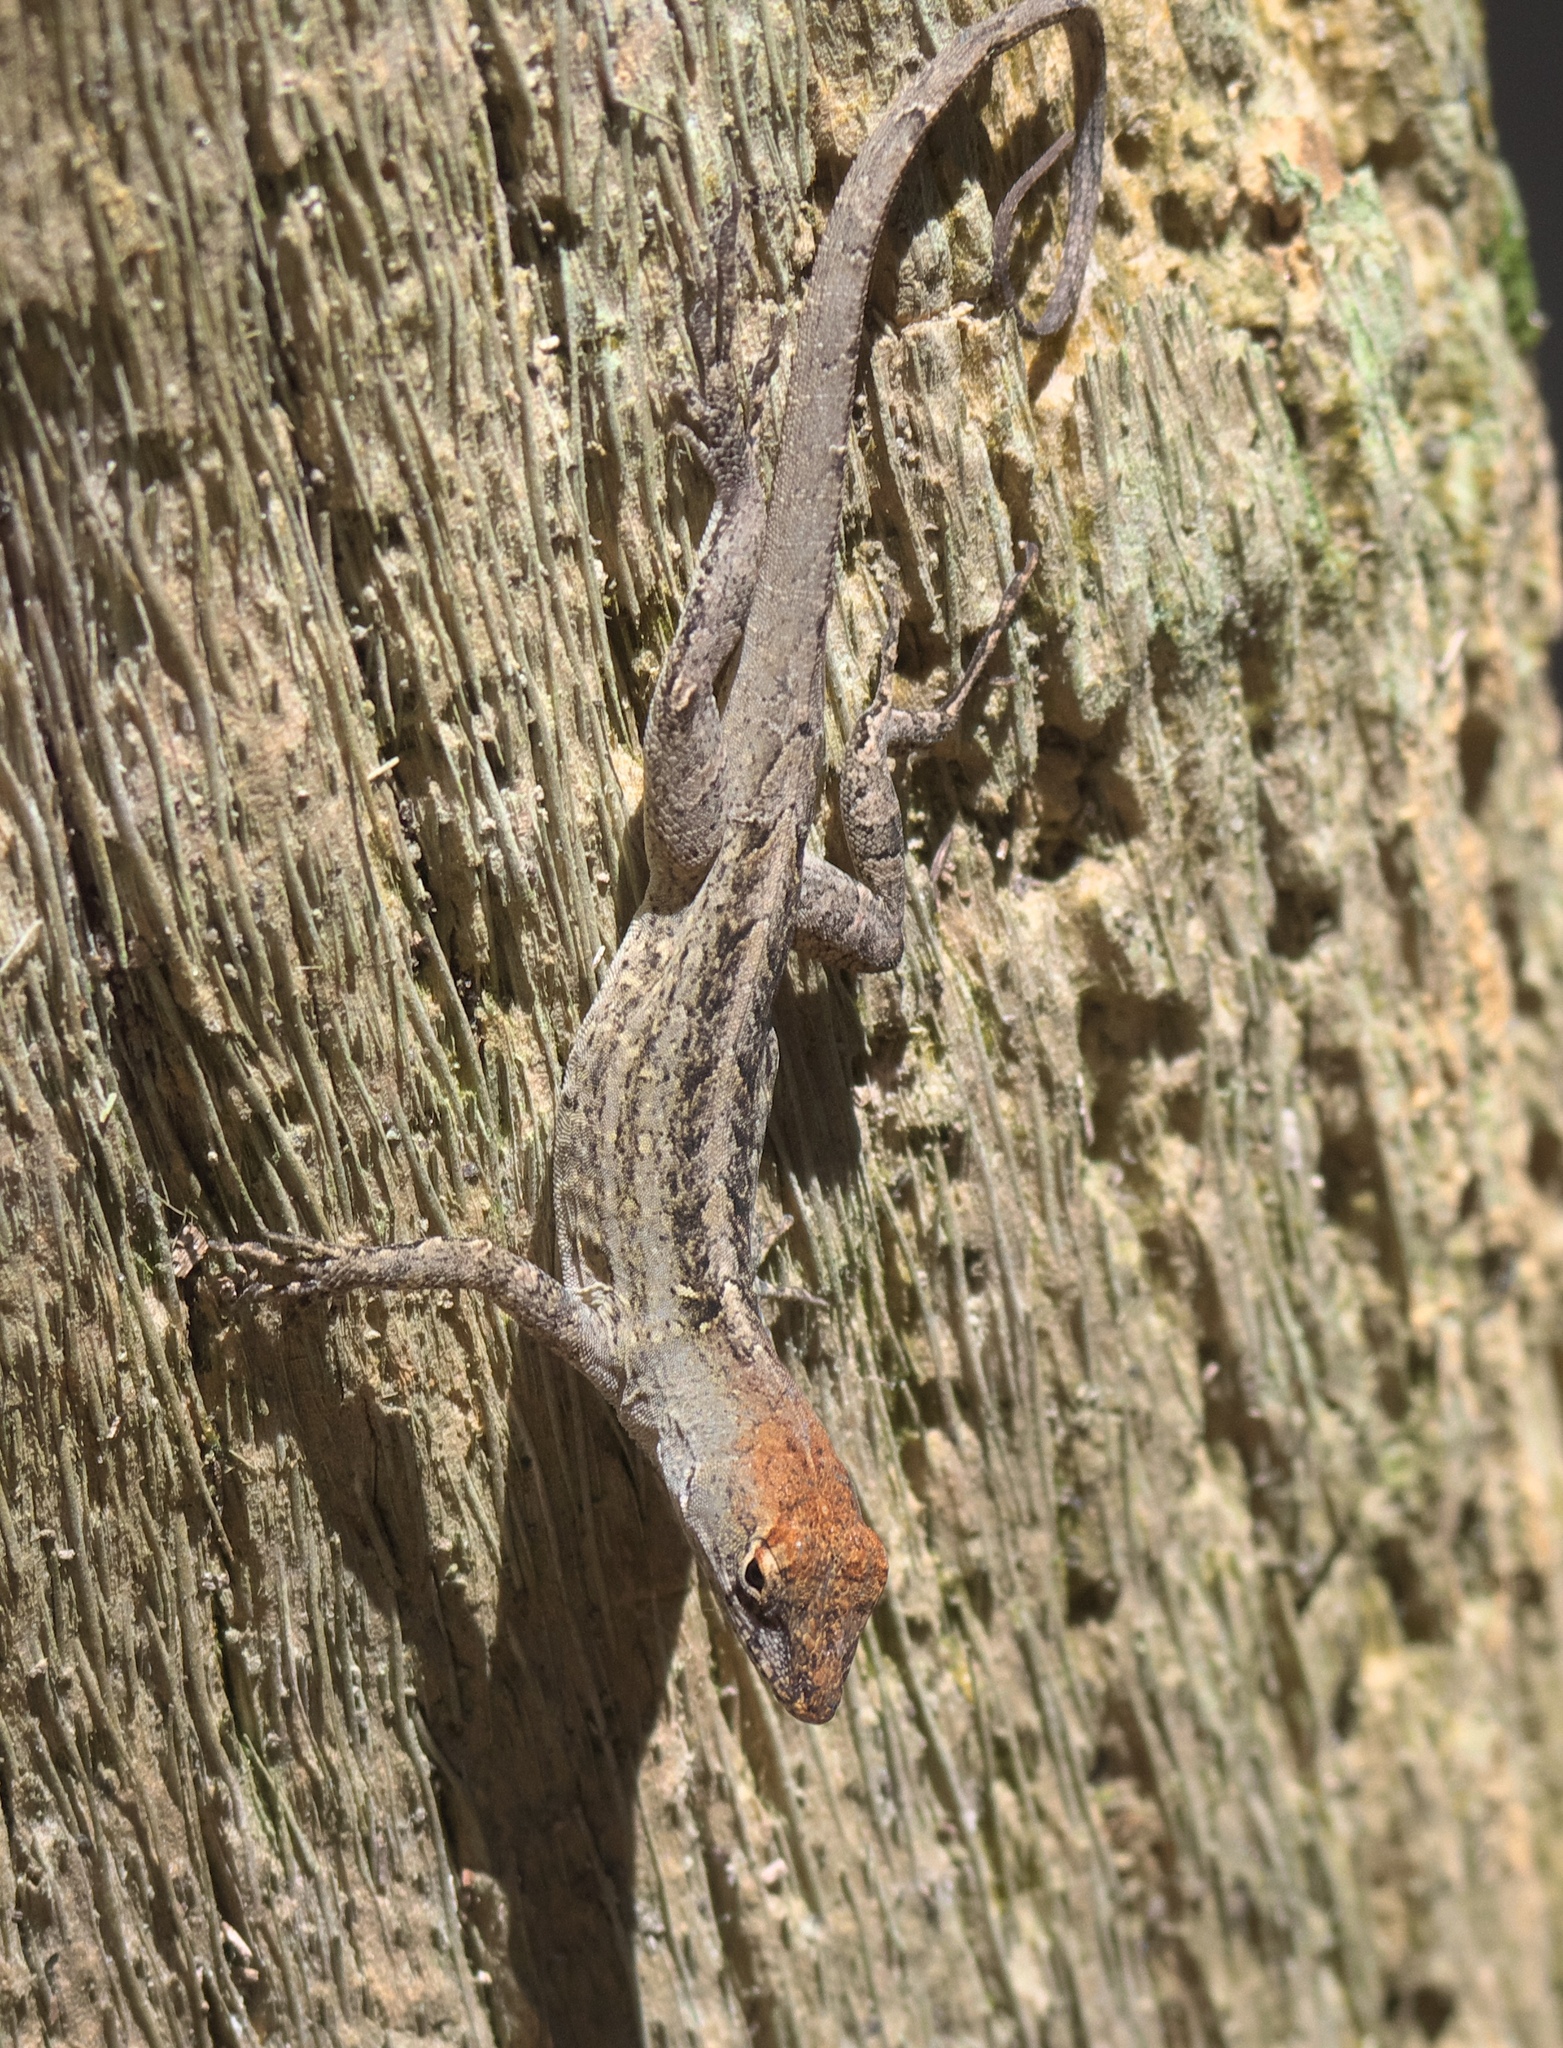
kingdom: Animalia
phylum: Chordata
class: Squamata
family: Dactyloidae
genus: Anolis
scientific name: Anolis sagrei
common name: Brown anole
